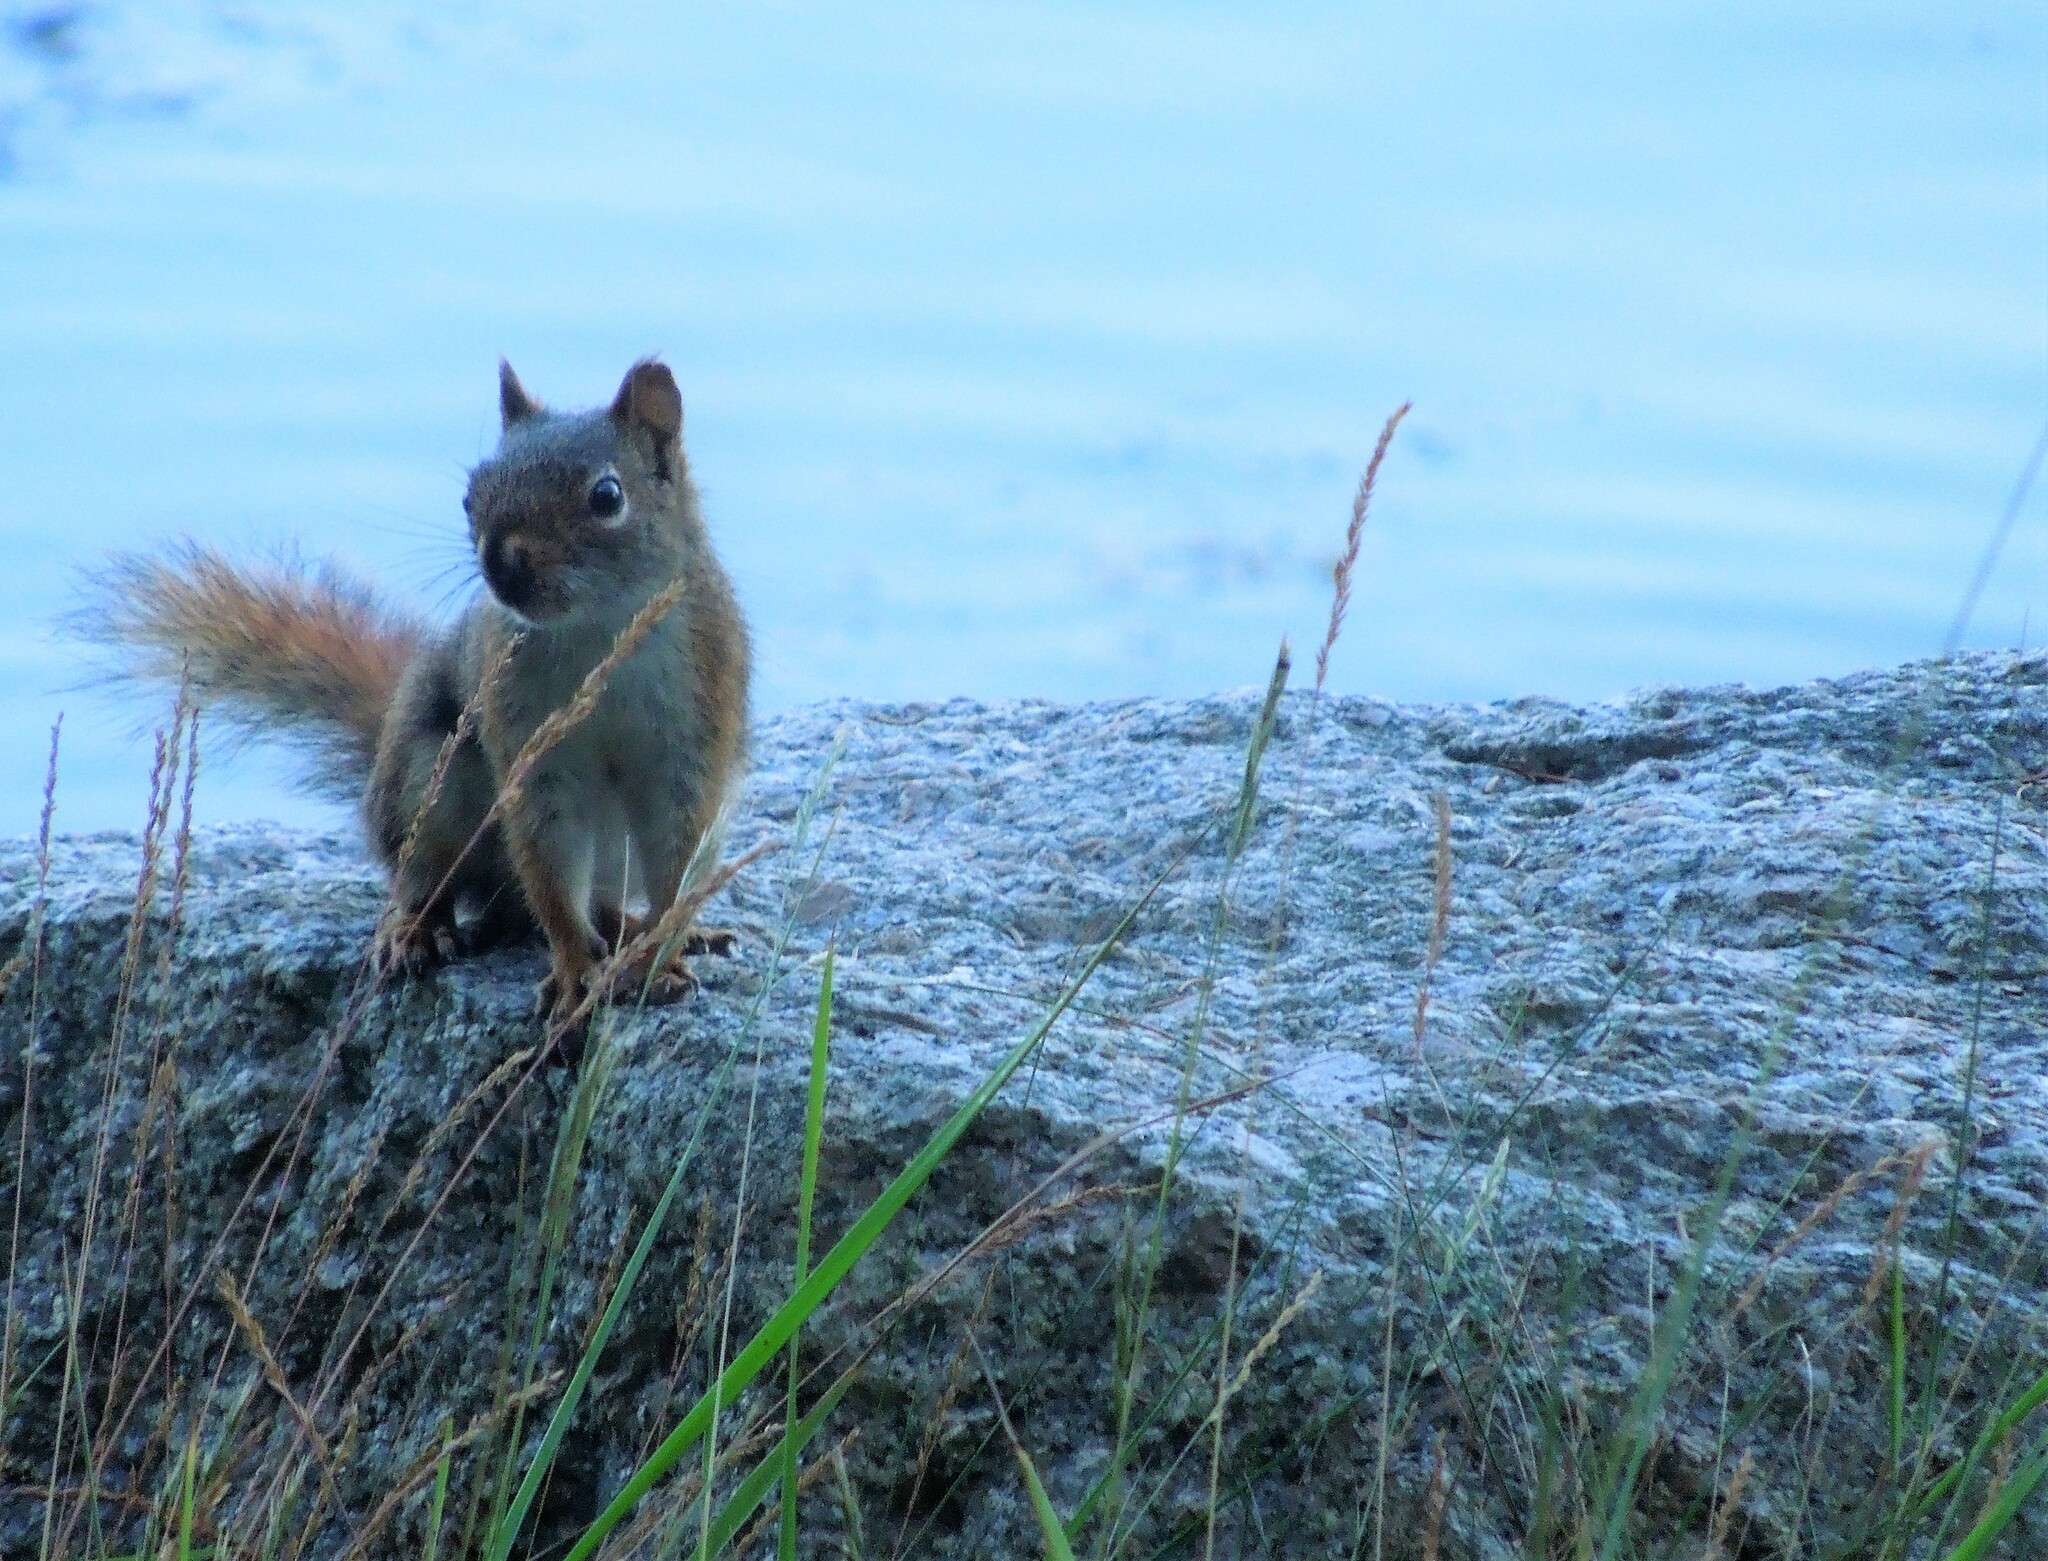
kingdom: Animalia
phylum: Chordata
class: Mammalia
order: Rodentia
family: Sciuridae
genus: Tamiasciurus
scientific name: Tamiasciurus hudsonicus
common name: Red squirrel
